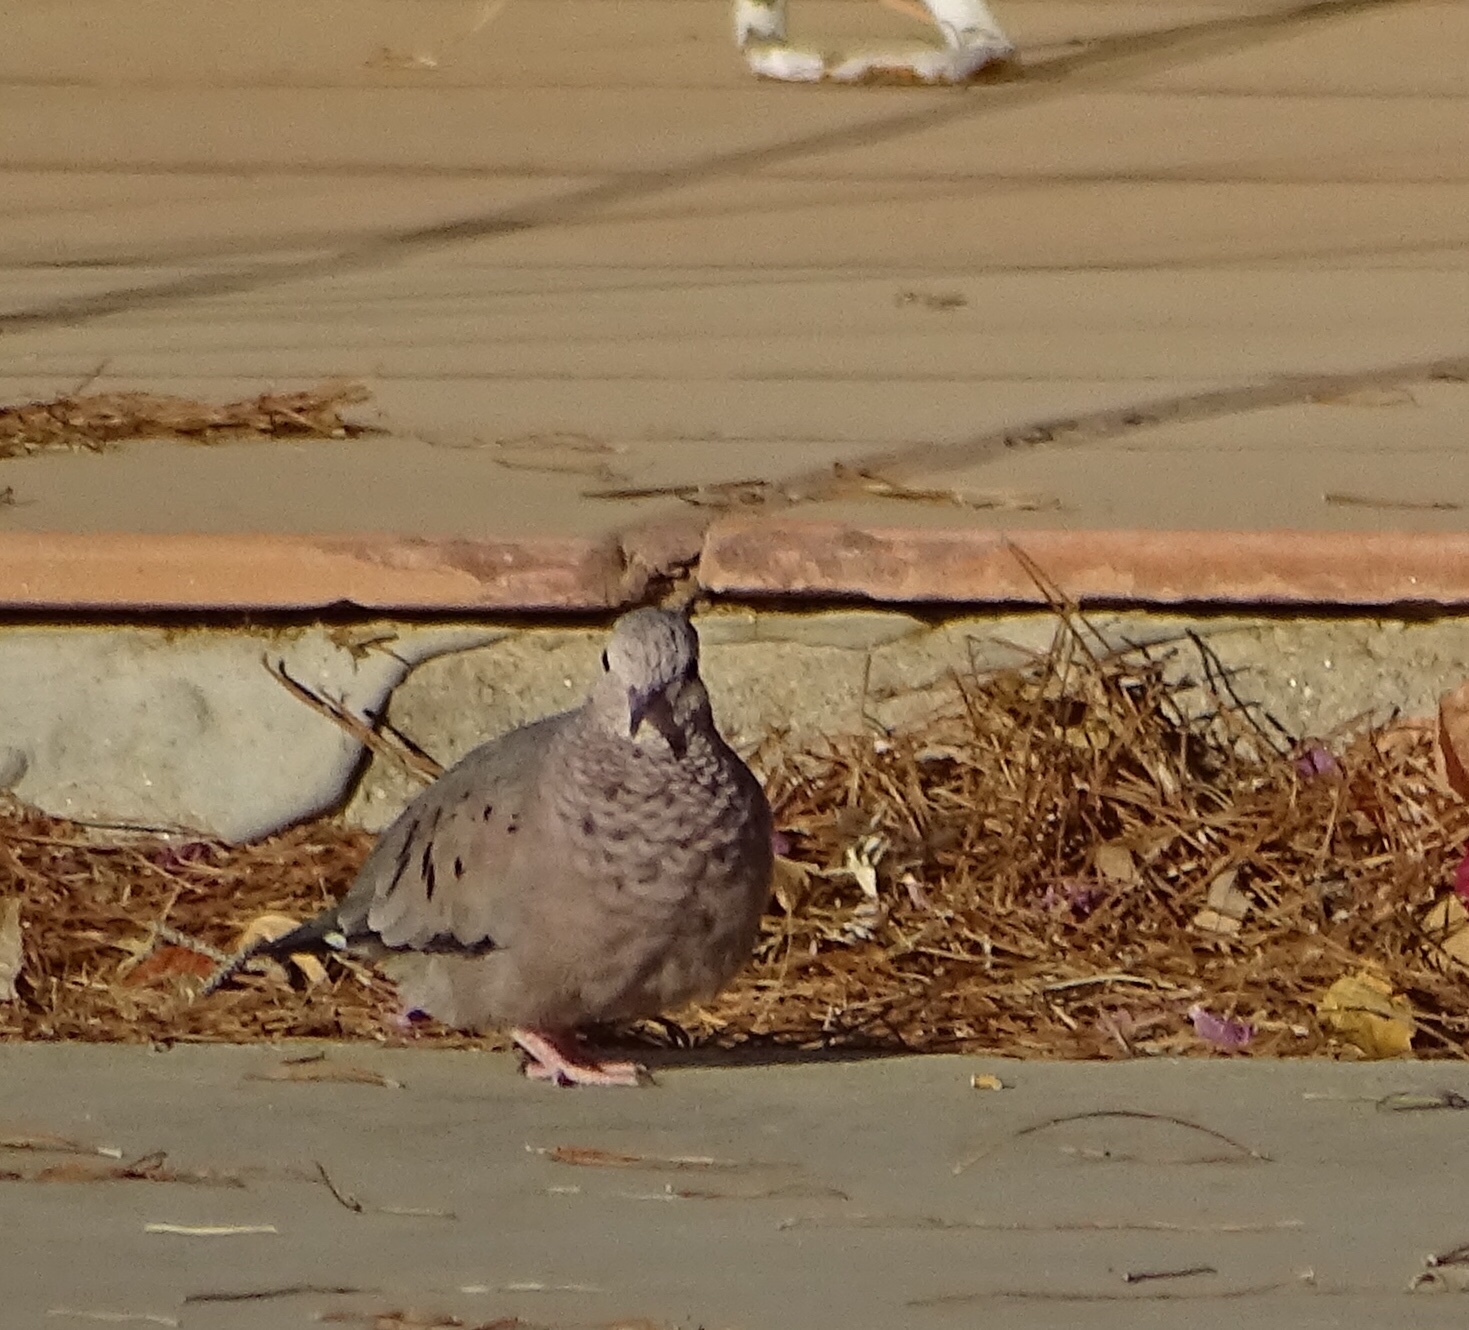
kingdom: Animalia
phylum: Chordata
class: Aves
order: Columbiformes
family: Columbidae
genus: Columbina
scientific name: Columbina passerina
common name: Common ground-dove
